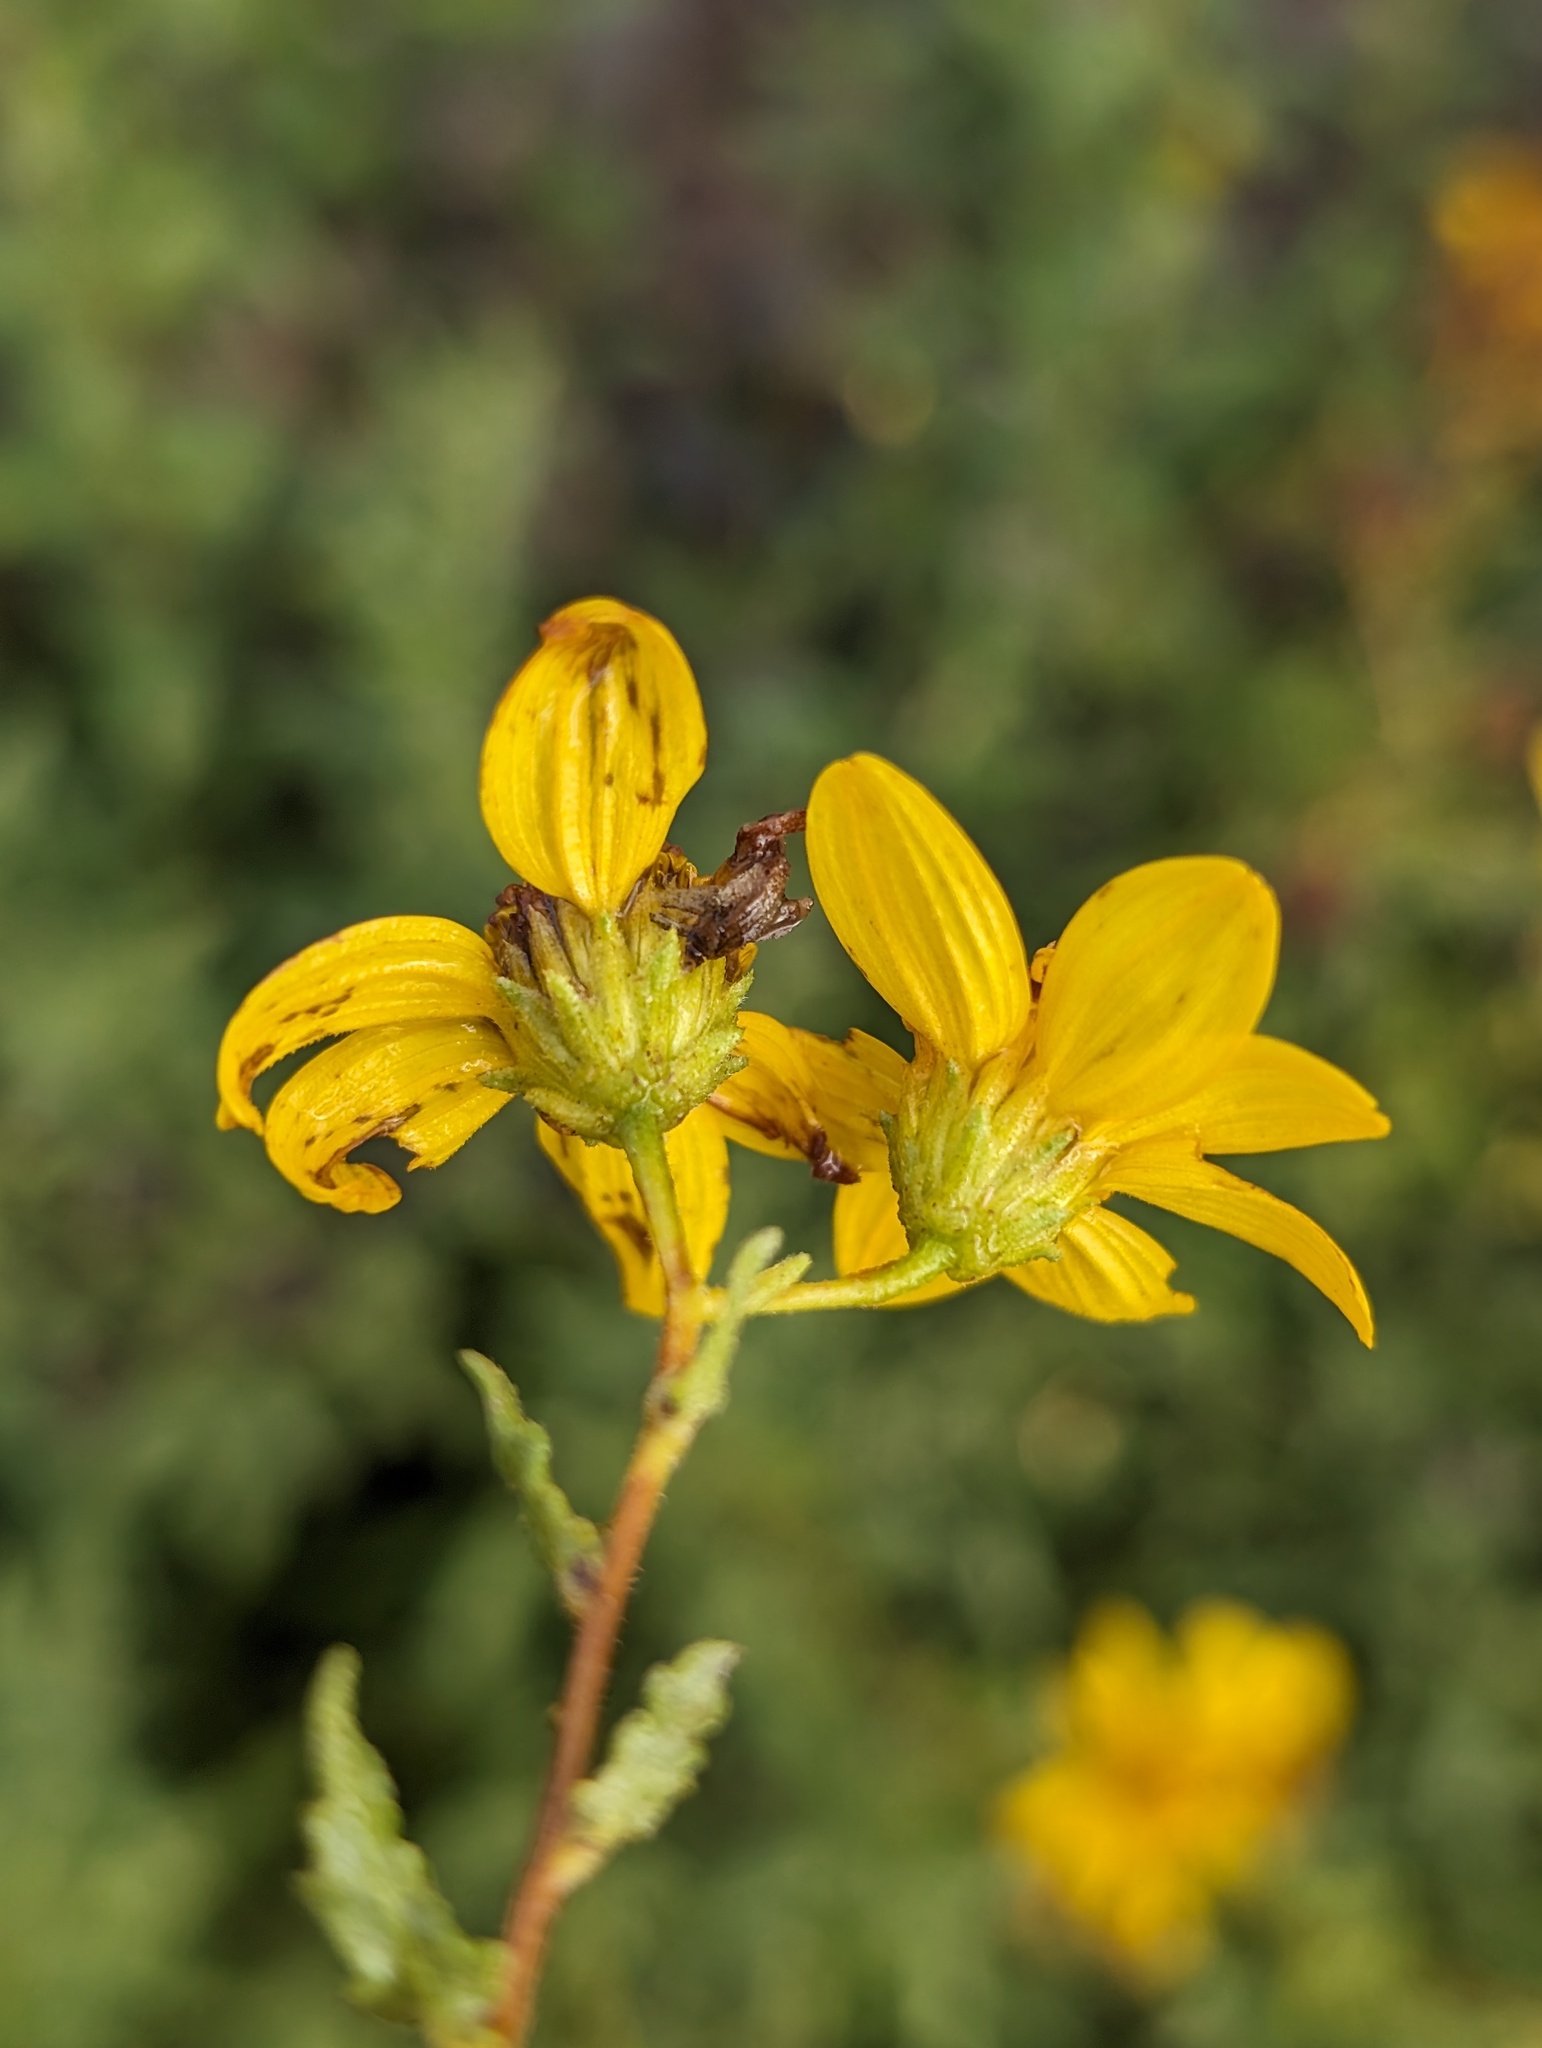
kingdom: Plantae
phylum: Tracheophyta
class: Magnoliopsida
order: Asterales
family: Asteraceae
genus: Bahiopsis
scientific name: Bahiopsis laciniata
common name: San diego county viguiera
